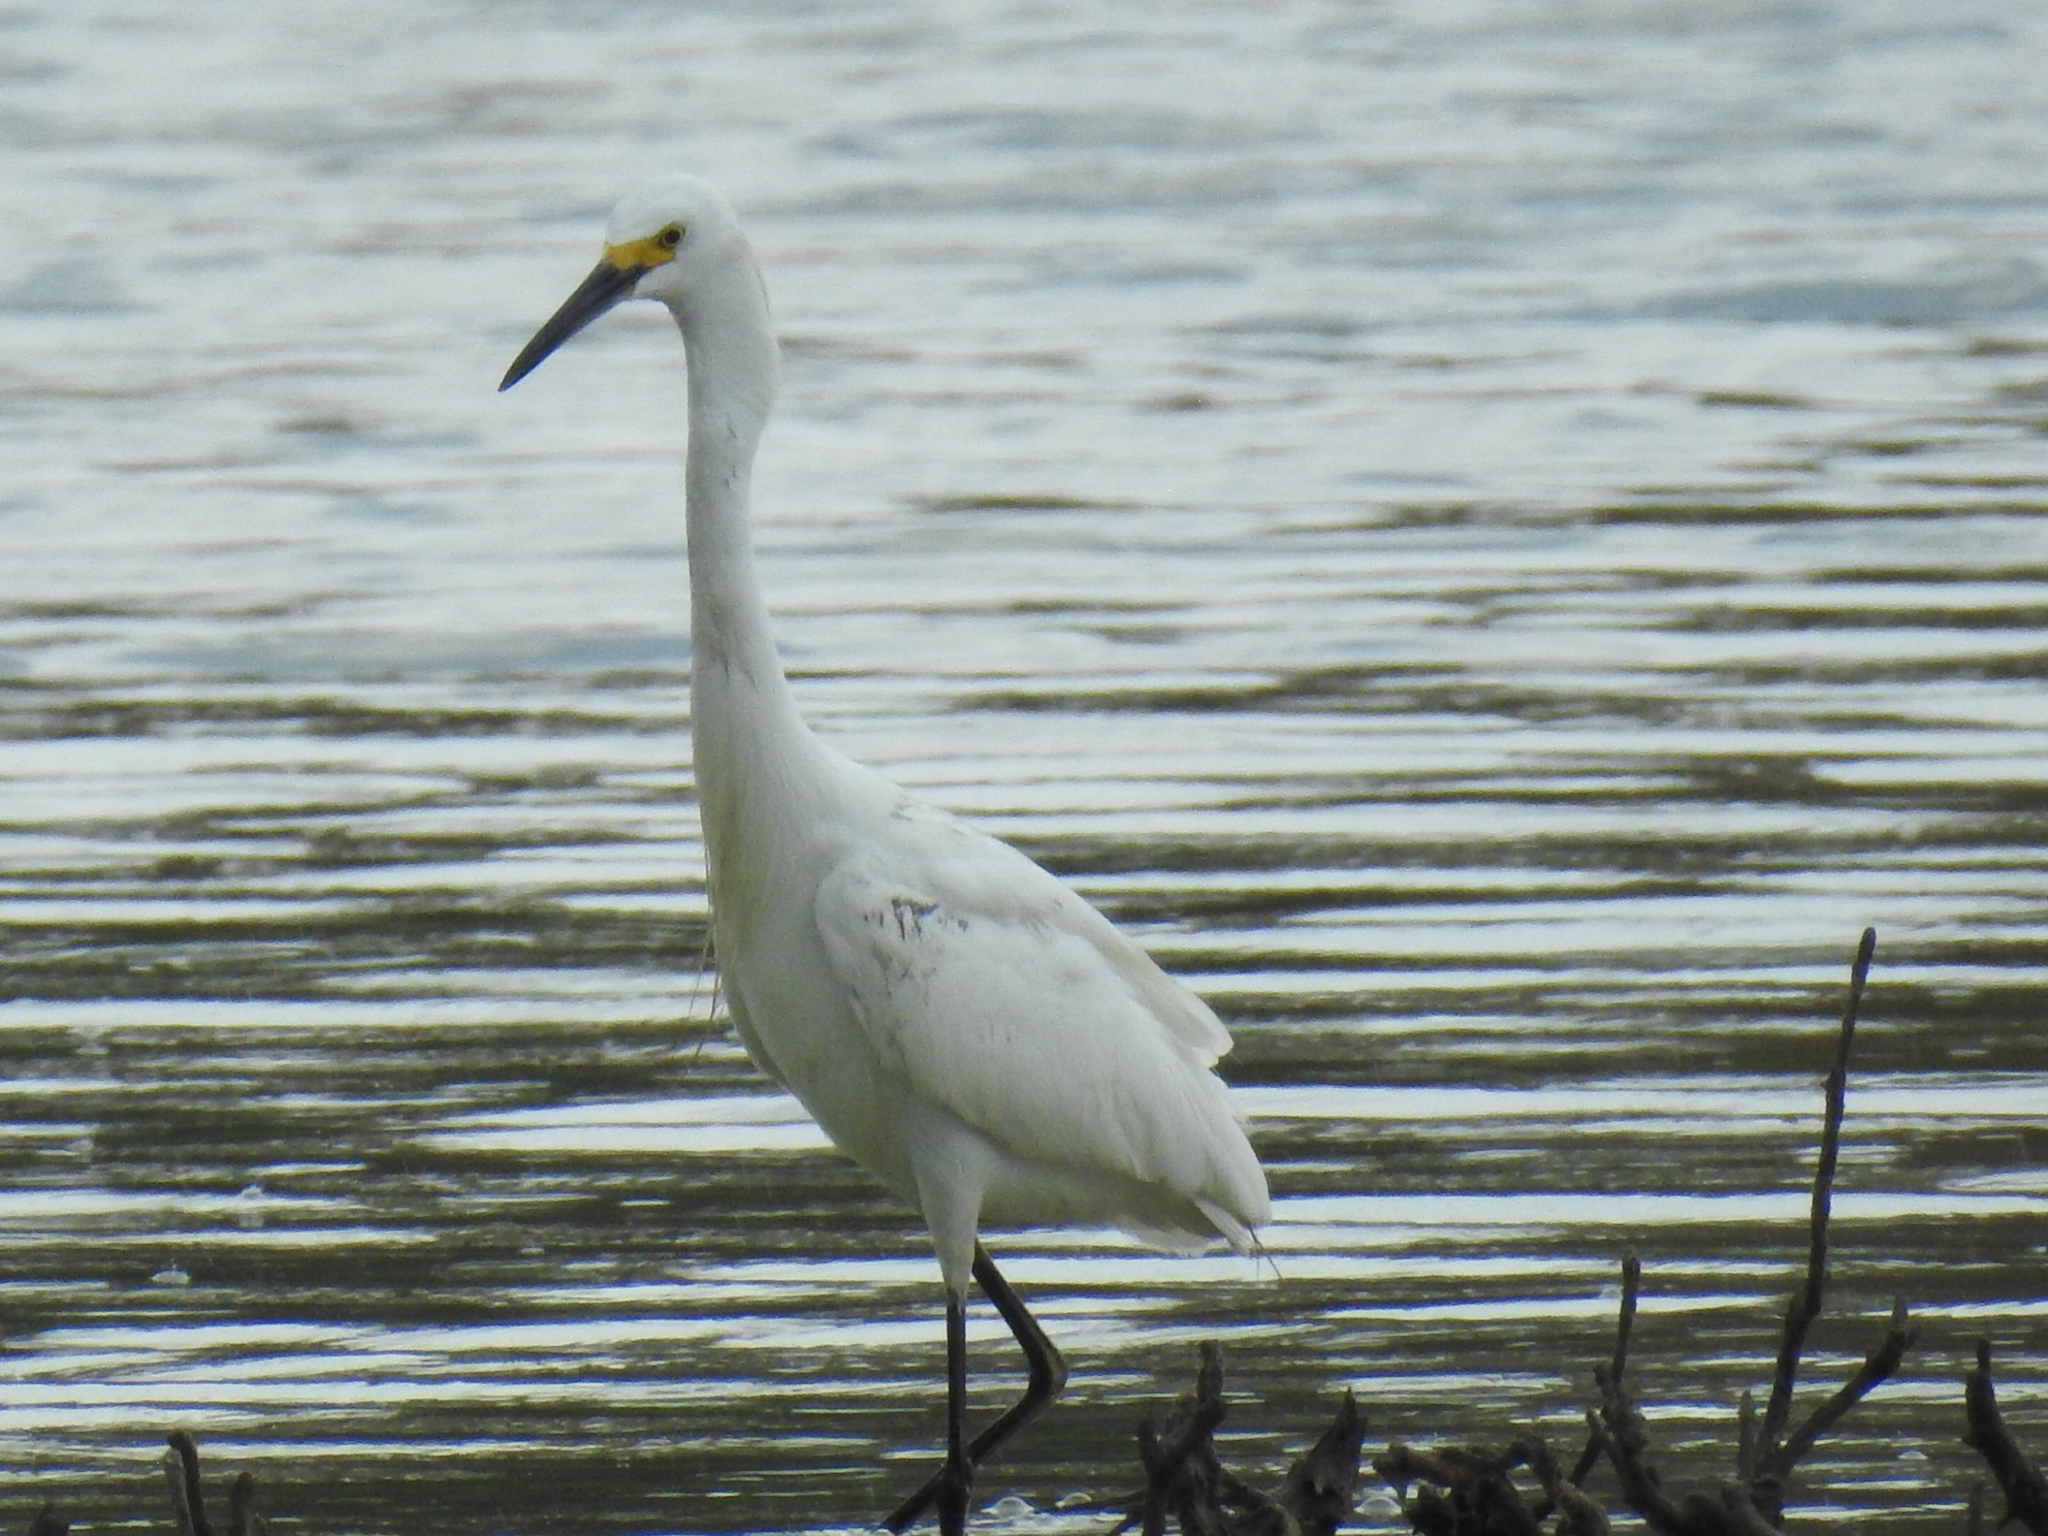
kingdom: Animalia
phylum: Chordata
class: Aves
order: Pelecaniformes
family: Ardeidae
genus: Egretta
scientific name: Egretta thula
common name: Snowy egret
